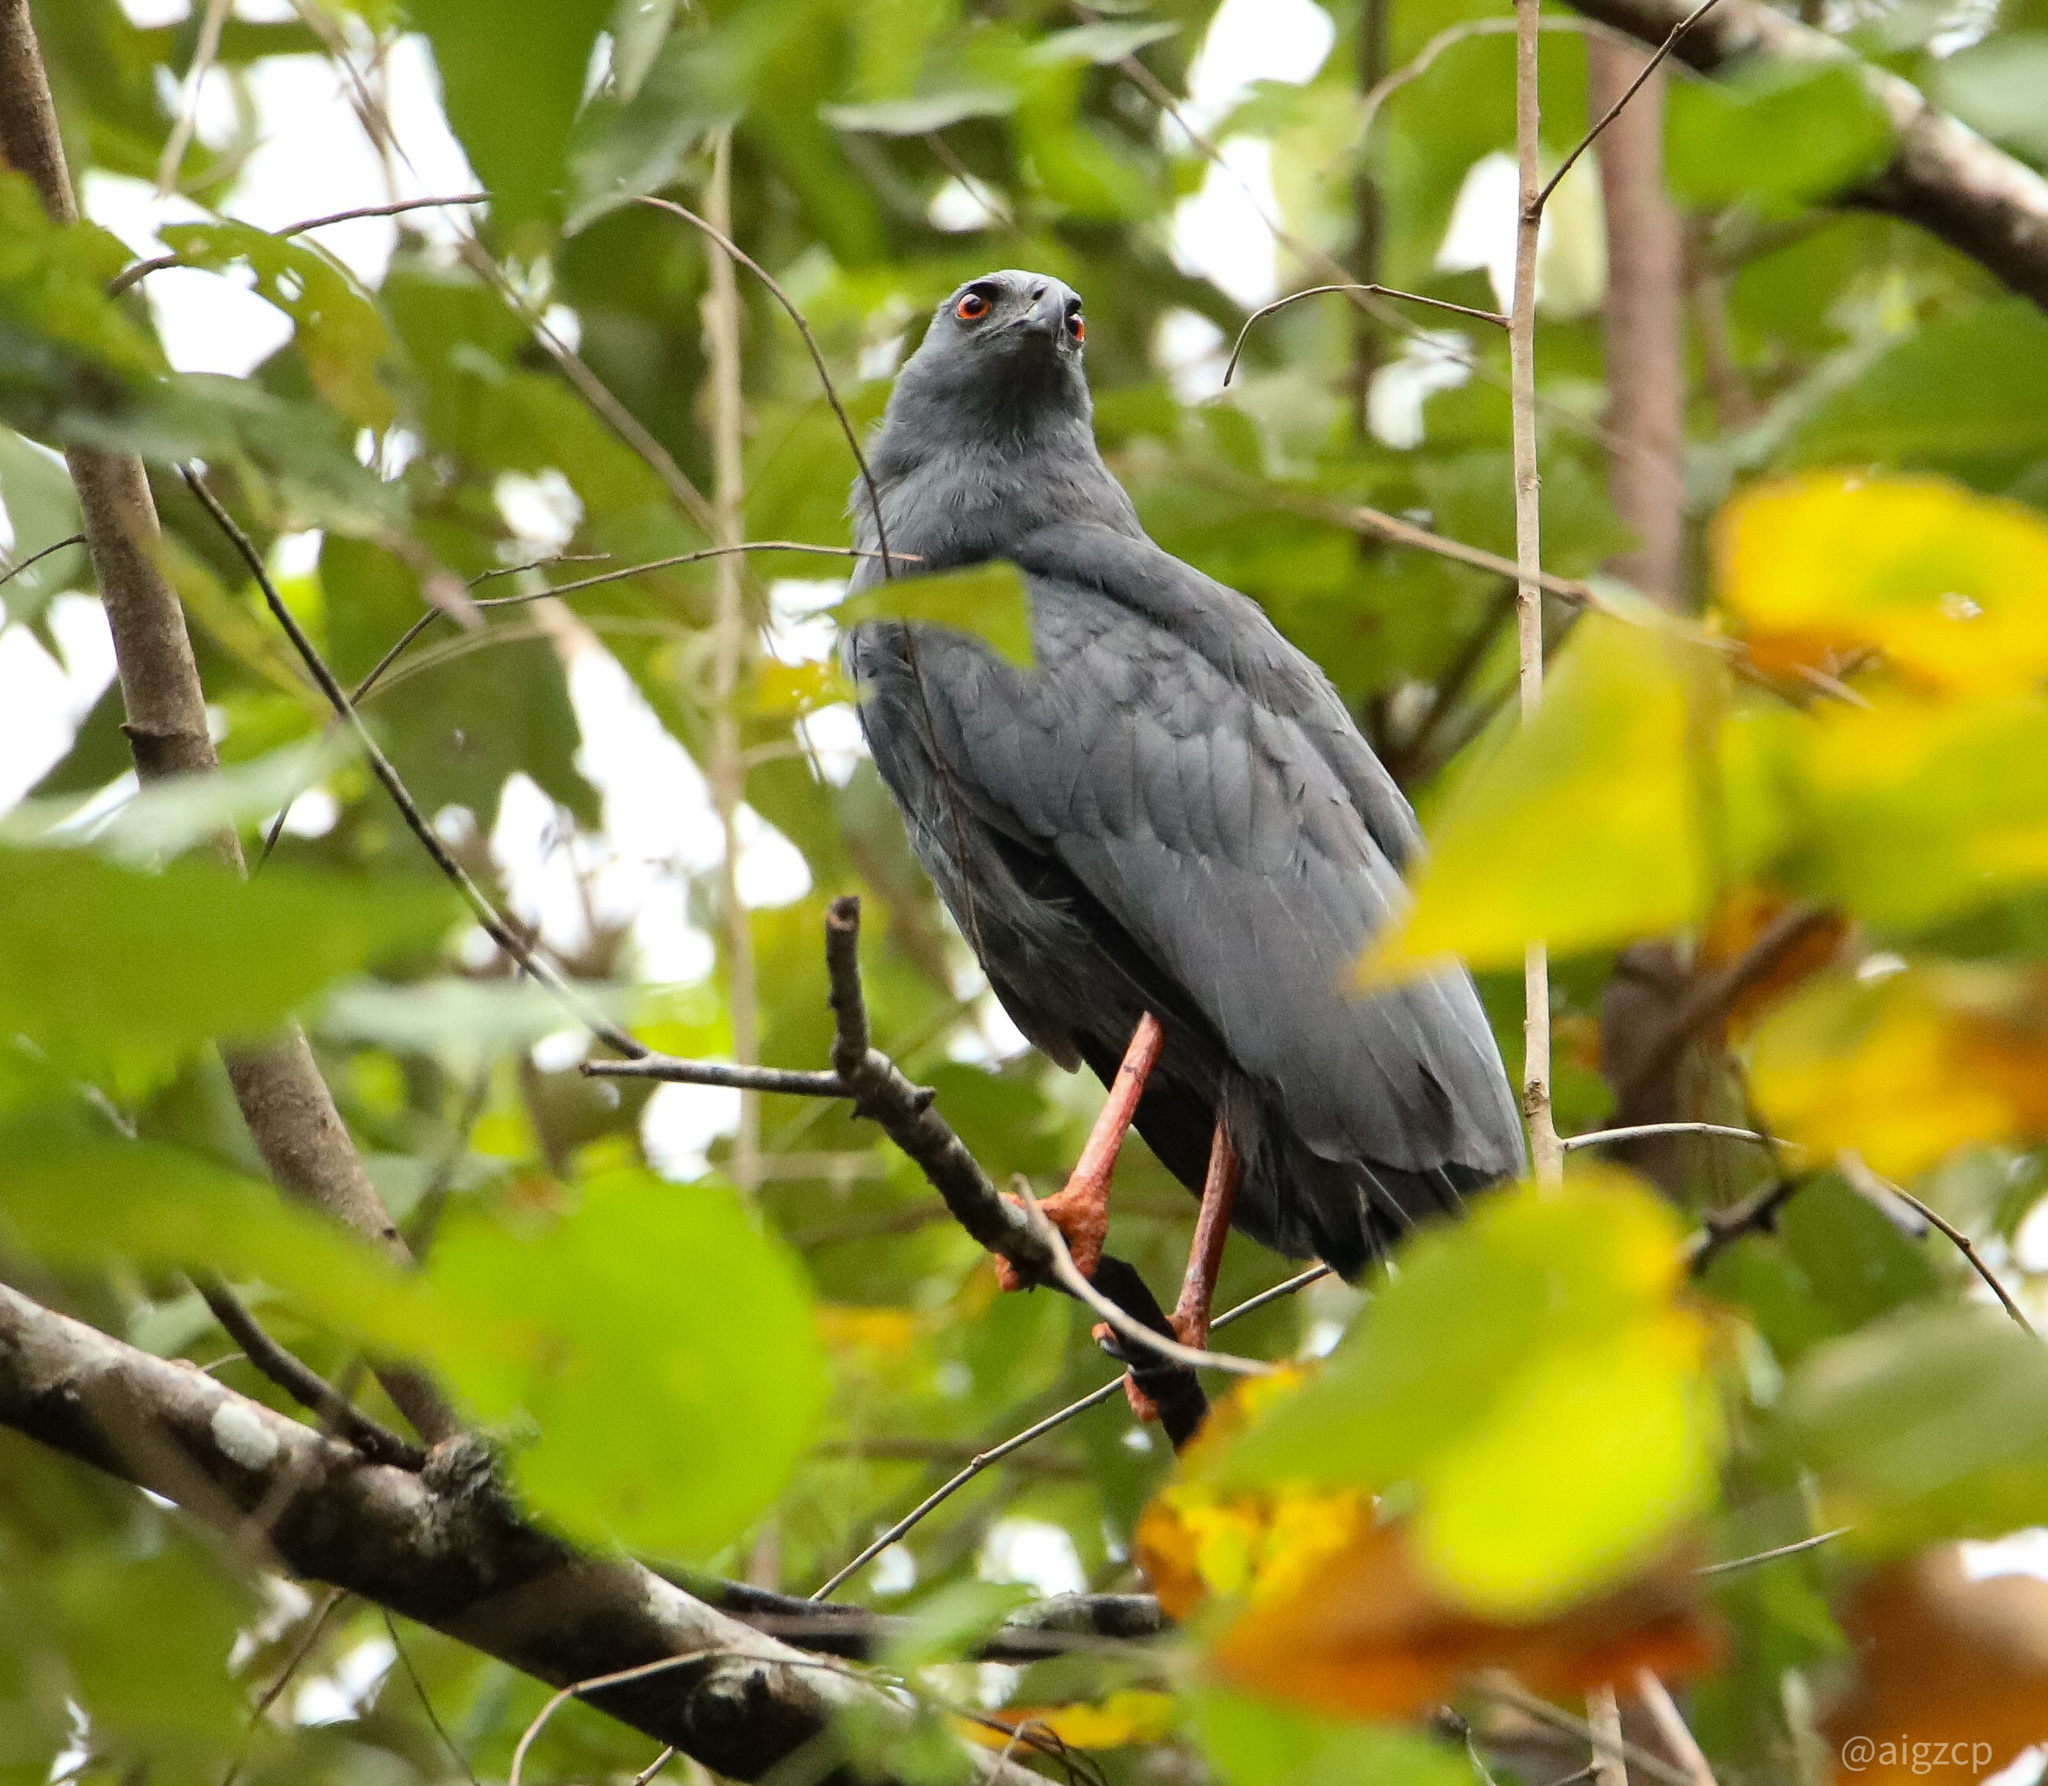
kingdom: Animalia
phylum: Chordata
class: Aves
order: Accipitriformes
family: Accipitridae
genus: Geranospiza
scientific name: Geranospiza caerulescens
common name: Crane hawk
